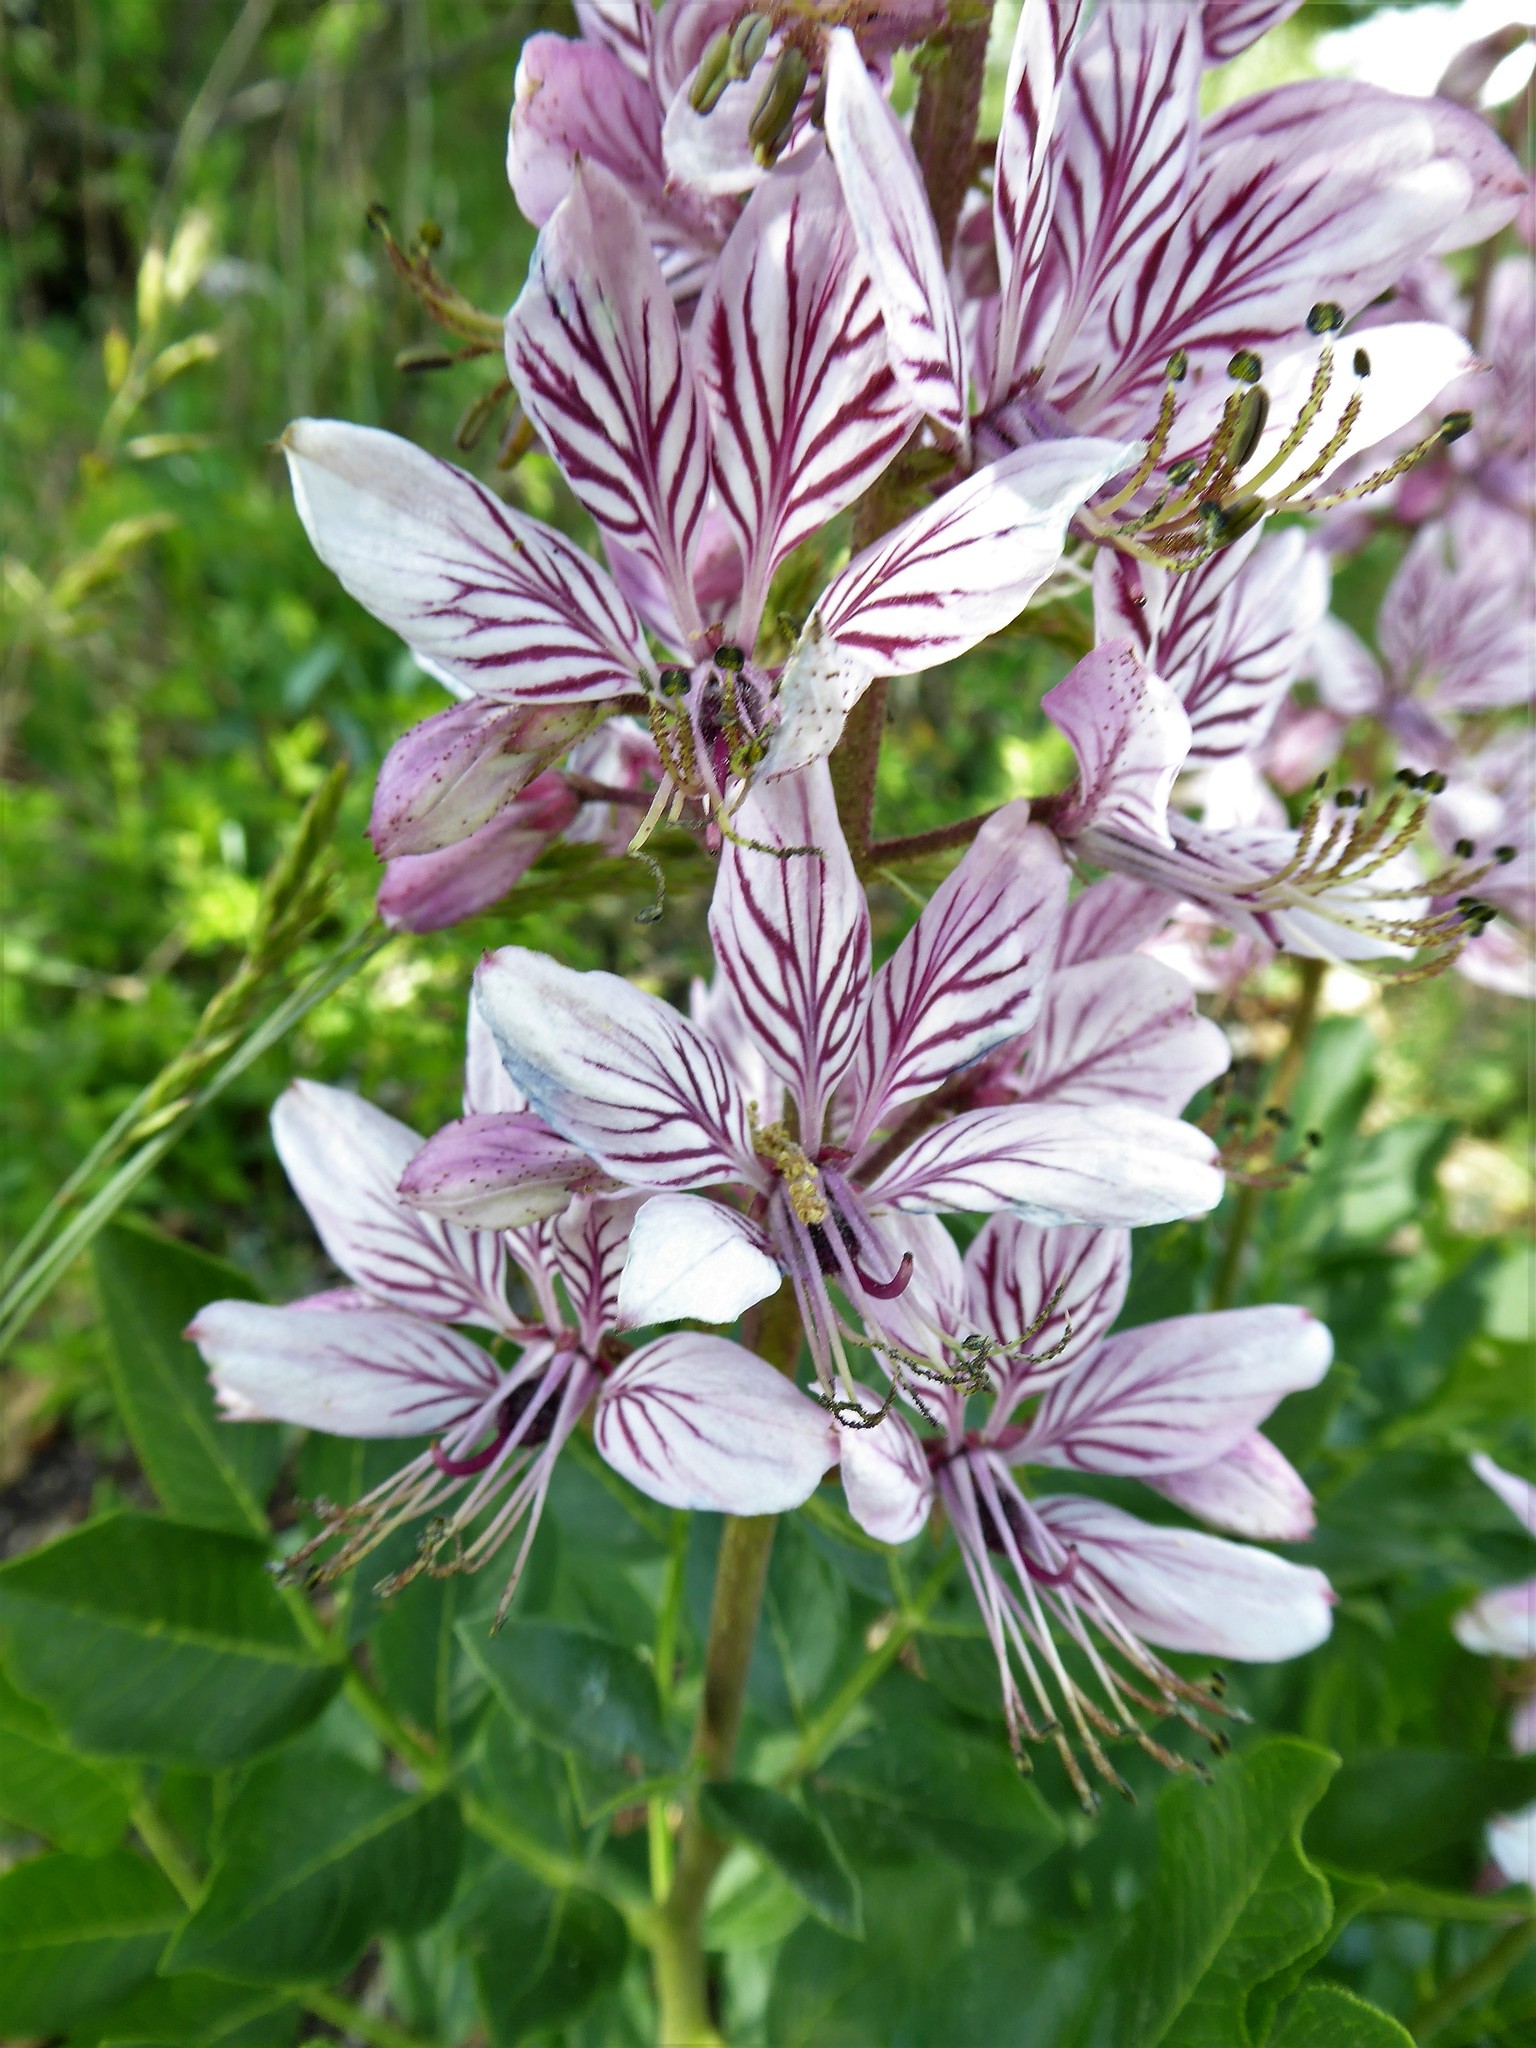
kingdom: Plantae
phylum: Tracheophyta
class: Magnoliopsida
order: Sapindales
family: Rutaceae
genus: Dictamnus
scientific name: Dictamnus albus
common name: Gasplant
